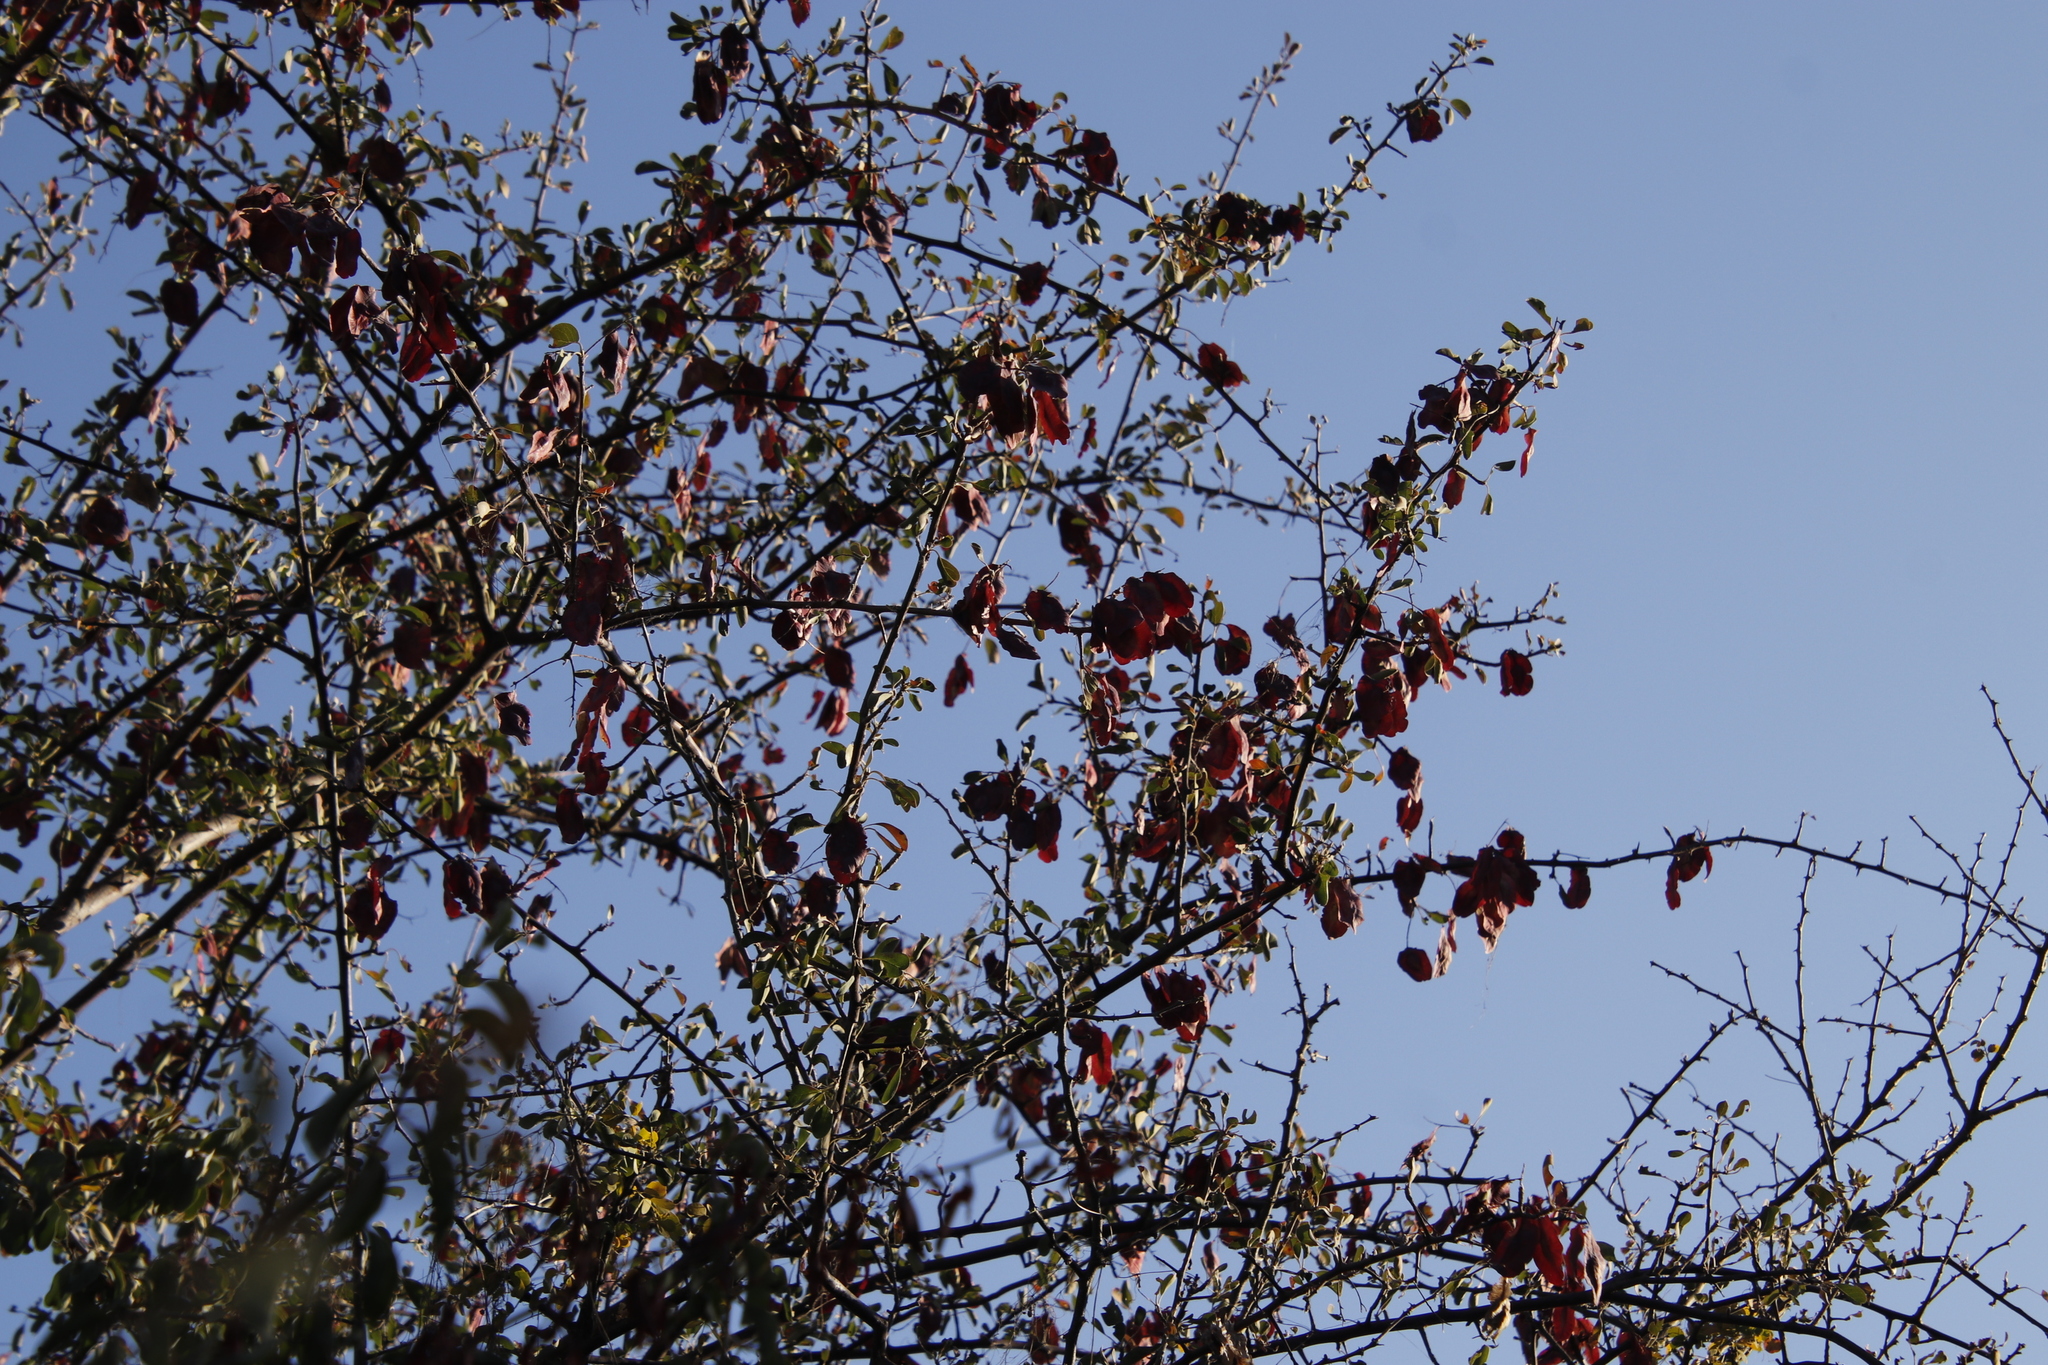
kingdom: Plantae
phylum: Tracheophyta
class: Magnoliopsida
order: Myrtales
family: Combretaceae
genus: Terminalia
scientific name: Terminalia prunioides
